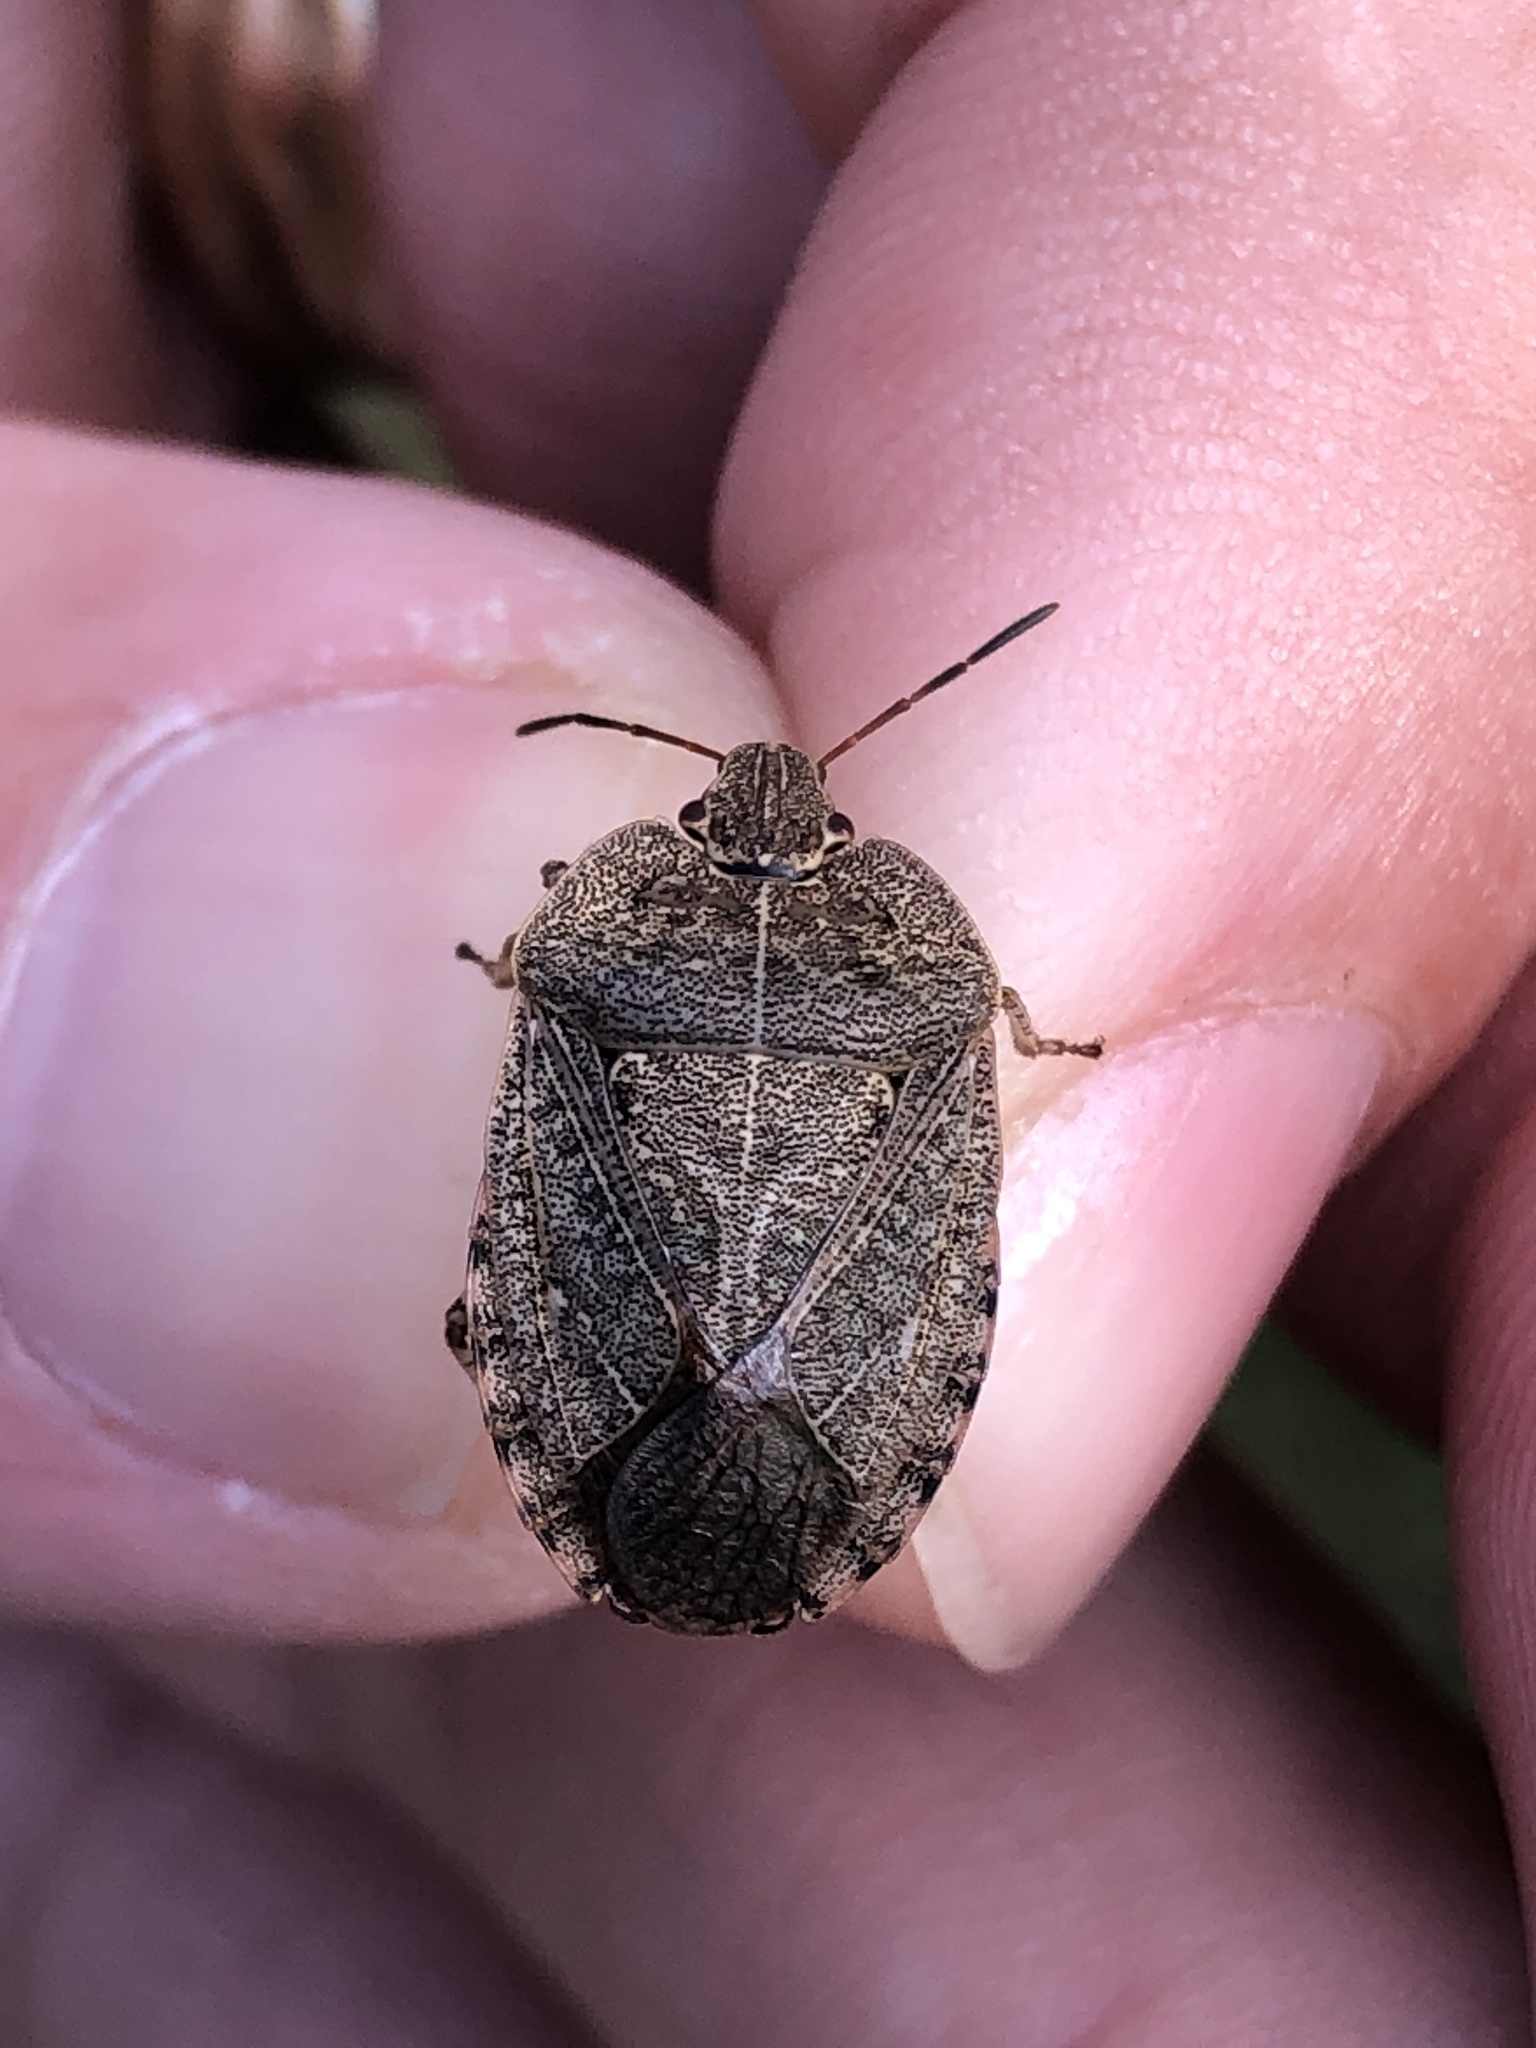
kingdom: Animalia
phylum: Arthropoda
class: Insecta
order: Hemiptera
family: Pentatomidae
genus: Menecles
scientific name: Menecles insertus
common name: Elf shoe stink bug
